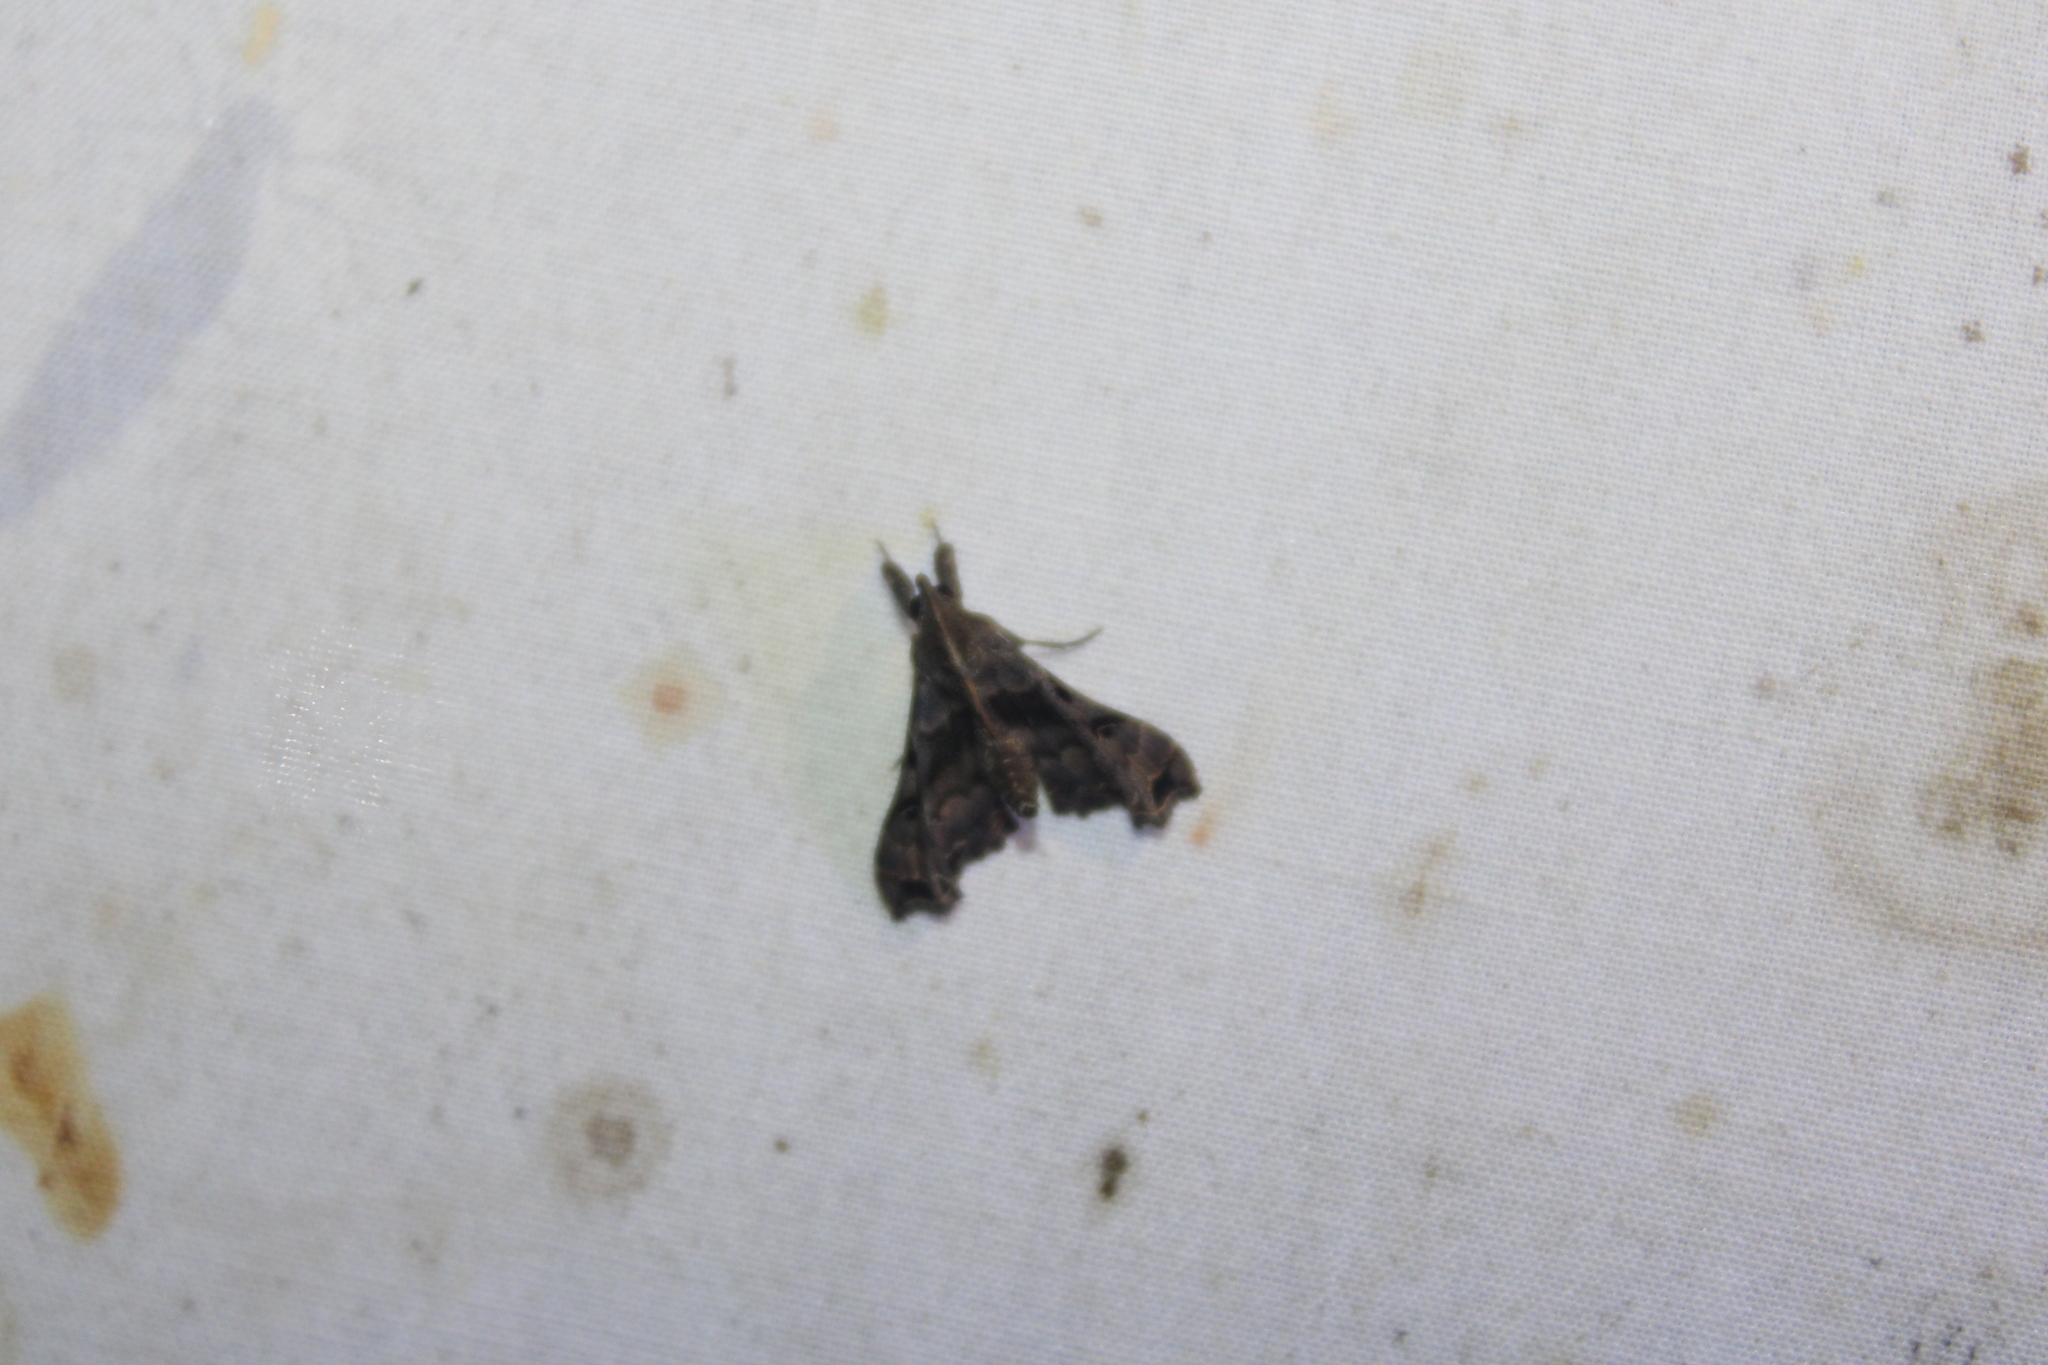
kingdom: Animalia
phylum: Arthropoda
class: Insecta
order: Lepidoptera
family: Erebidae
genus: Palthis
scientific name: Palthis asopialis
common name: Faint-spotted palthis moth
